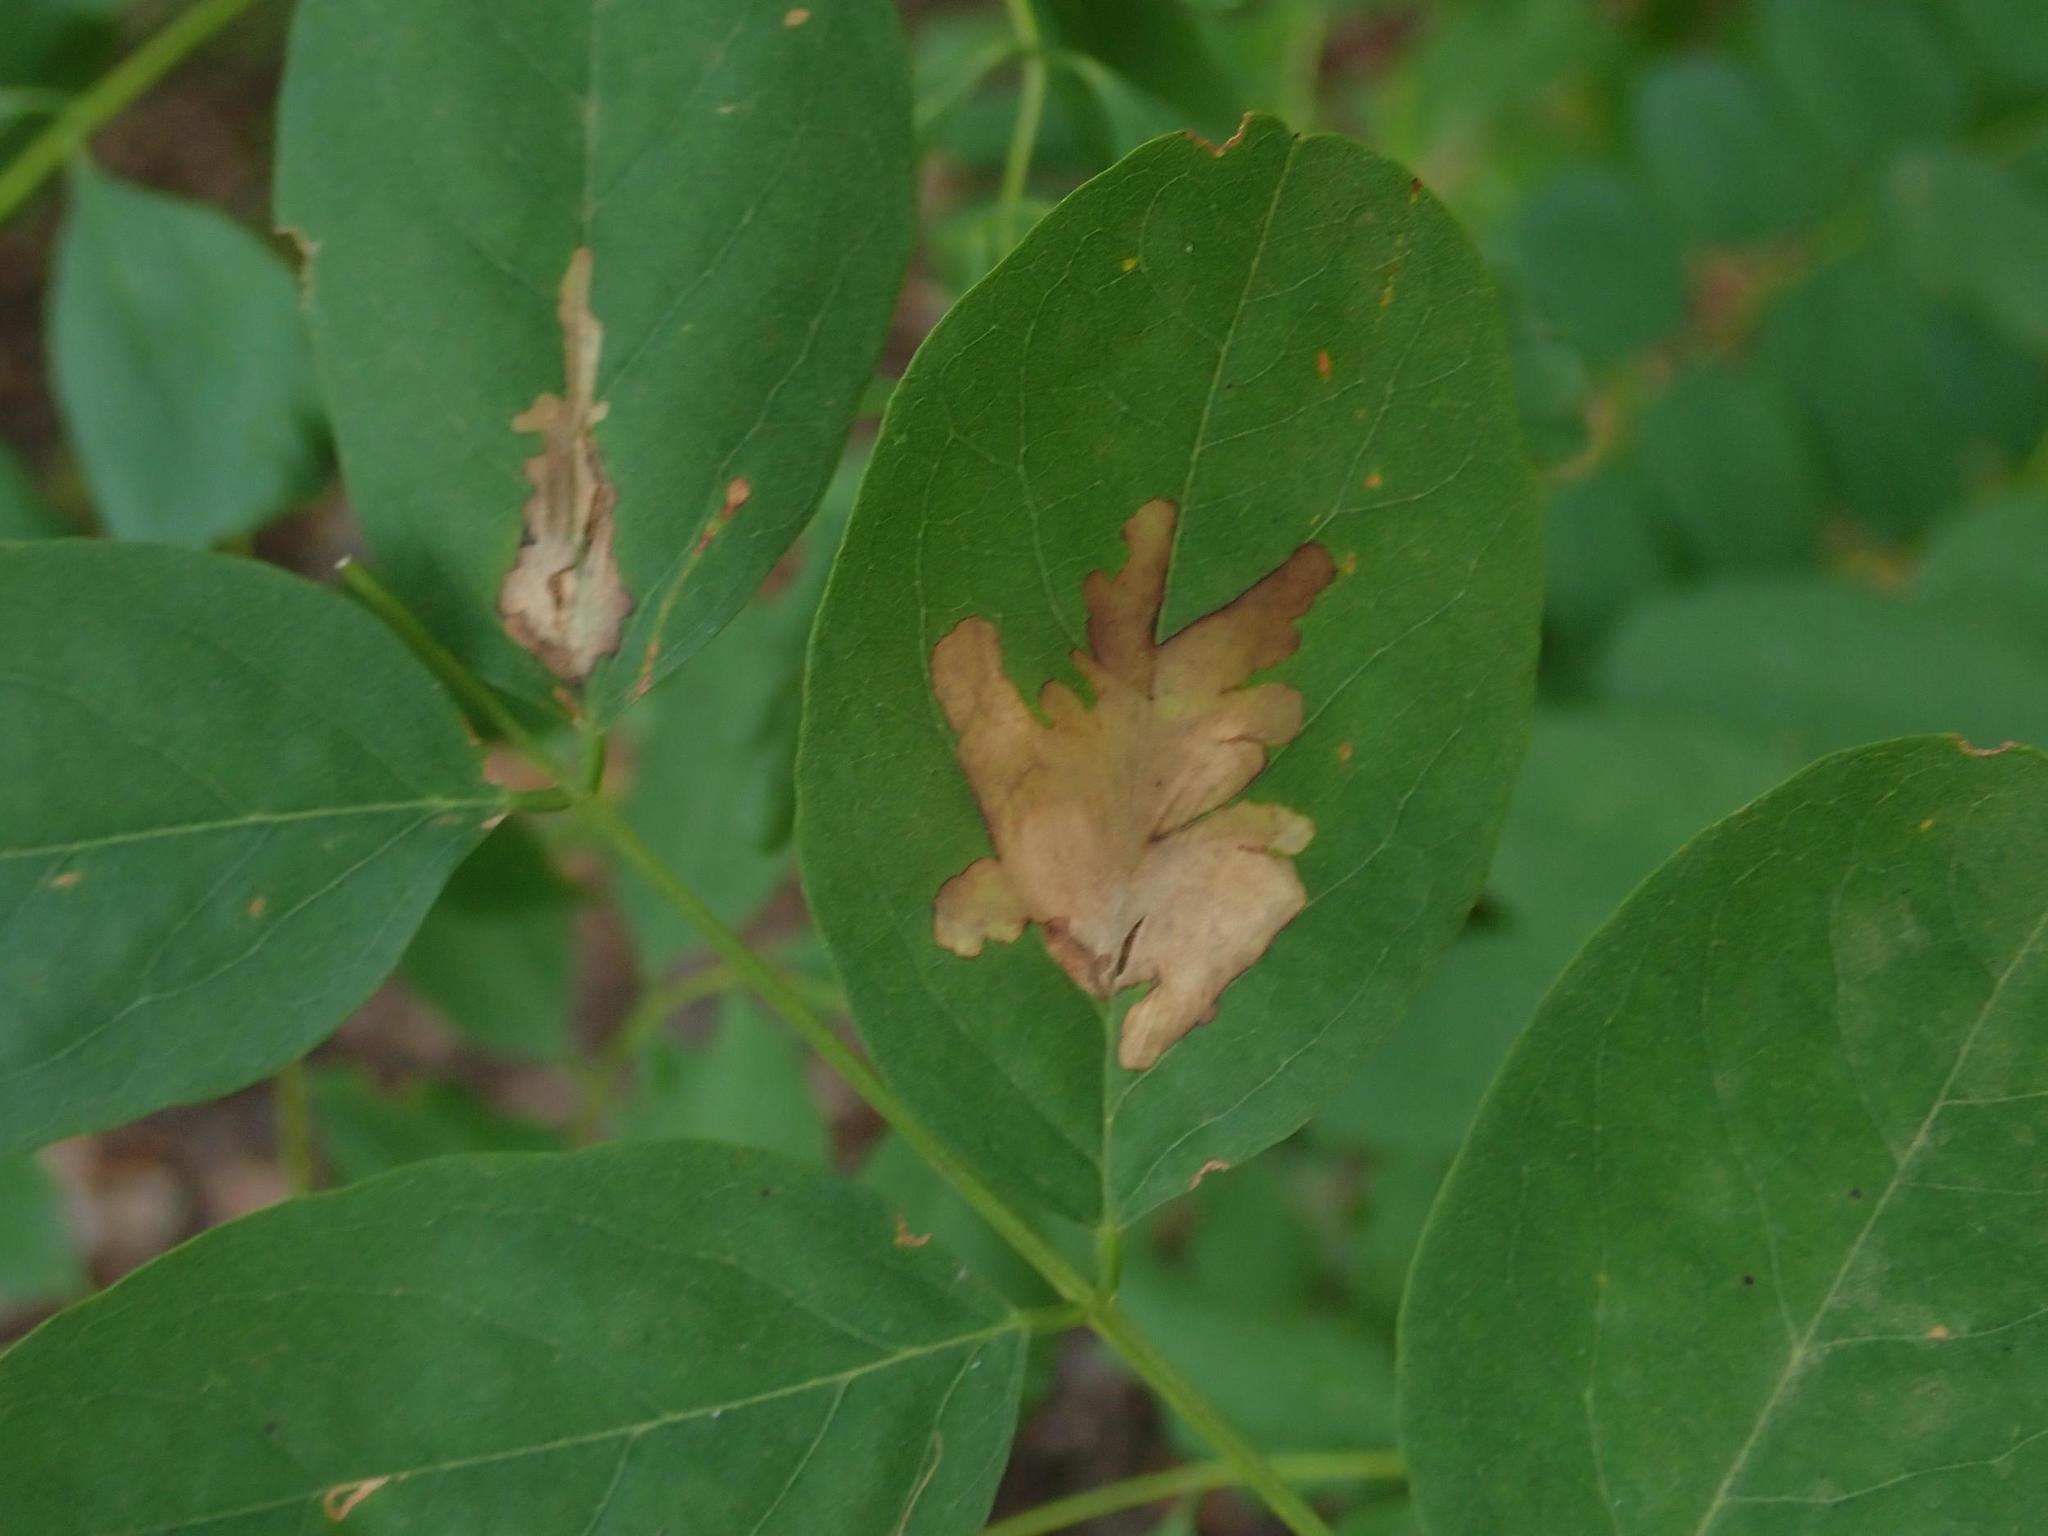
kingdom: Animalia
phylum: Arthropoda
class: Insecta
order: Lepidoptera
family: Gracillariidae
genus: Parectopa
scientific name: Parectopa robiniella
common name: Locust digitate leafminer
